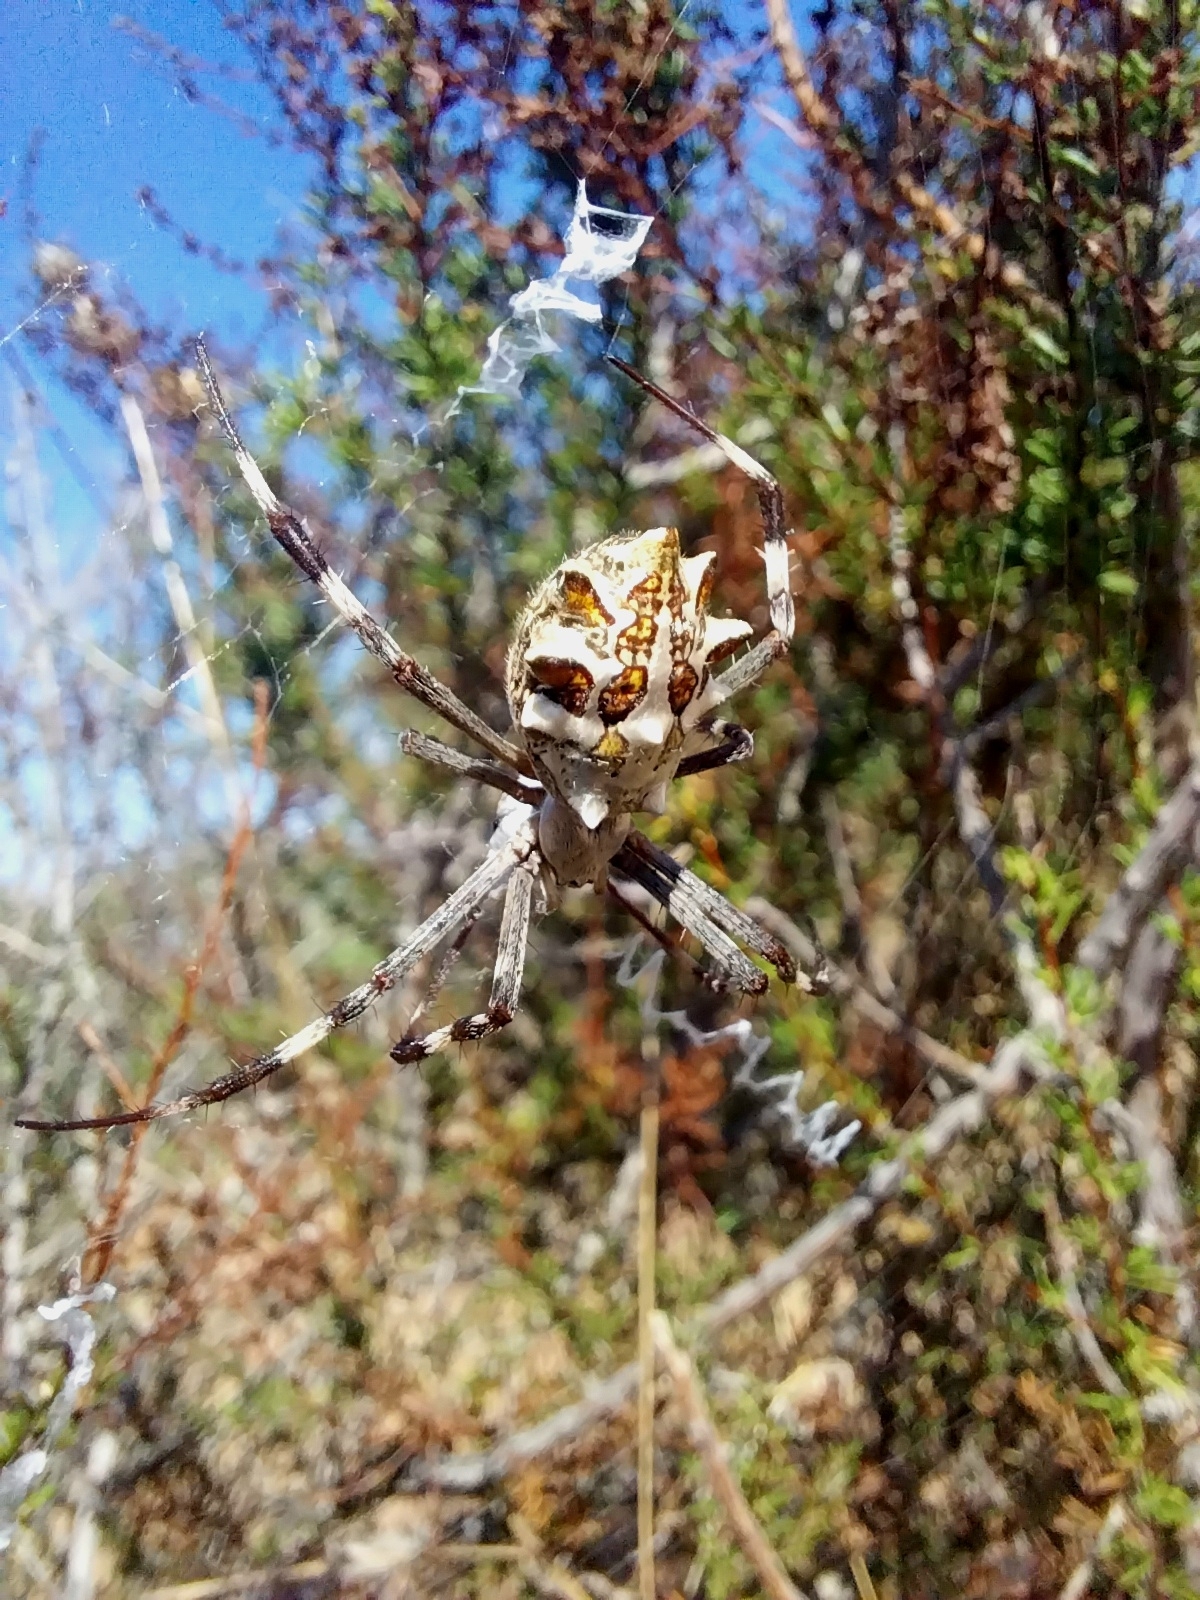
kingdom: Animalia
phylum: Arthropoda
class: Arachnida
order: Araneae
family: Araneidae
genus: Argiope
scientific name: Argiope argentata
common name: Orb weavers
